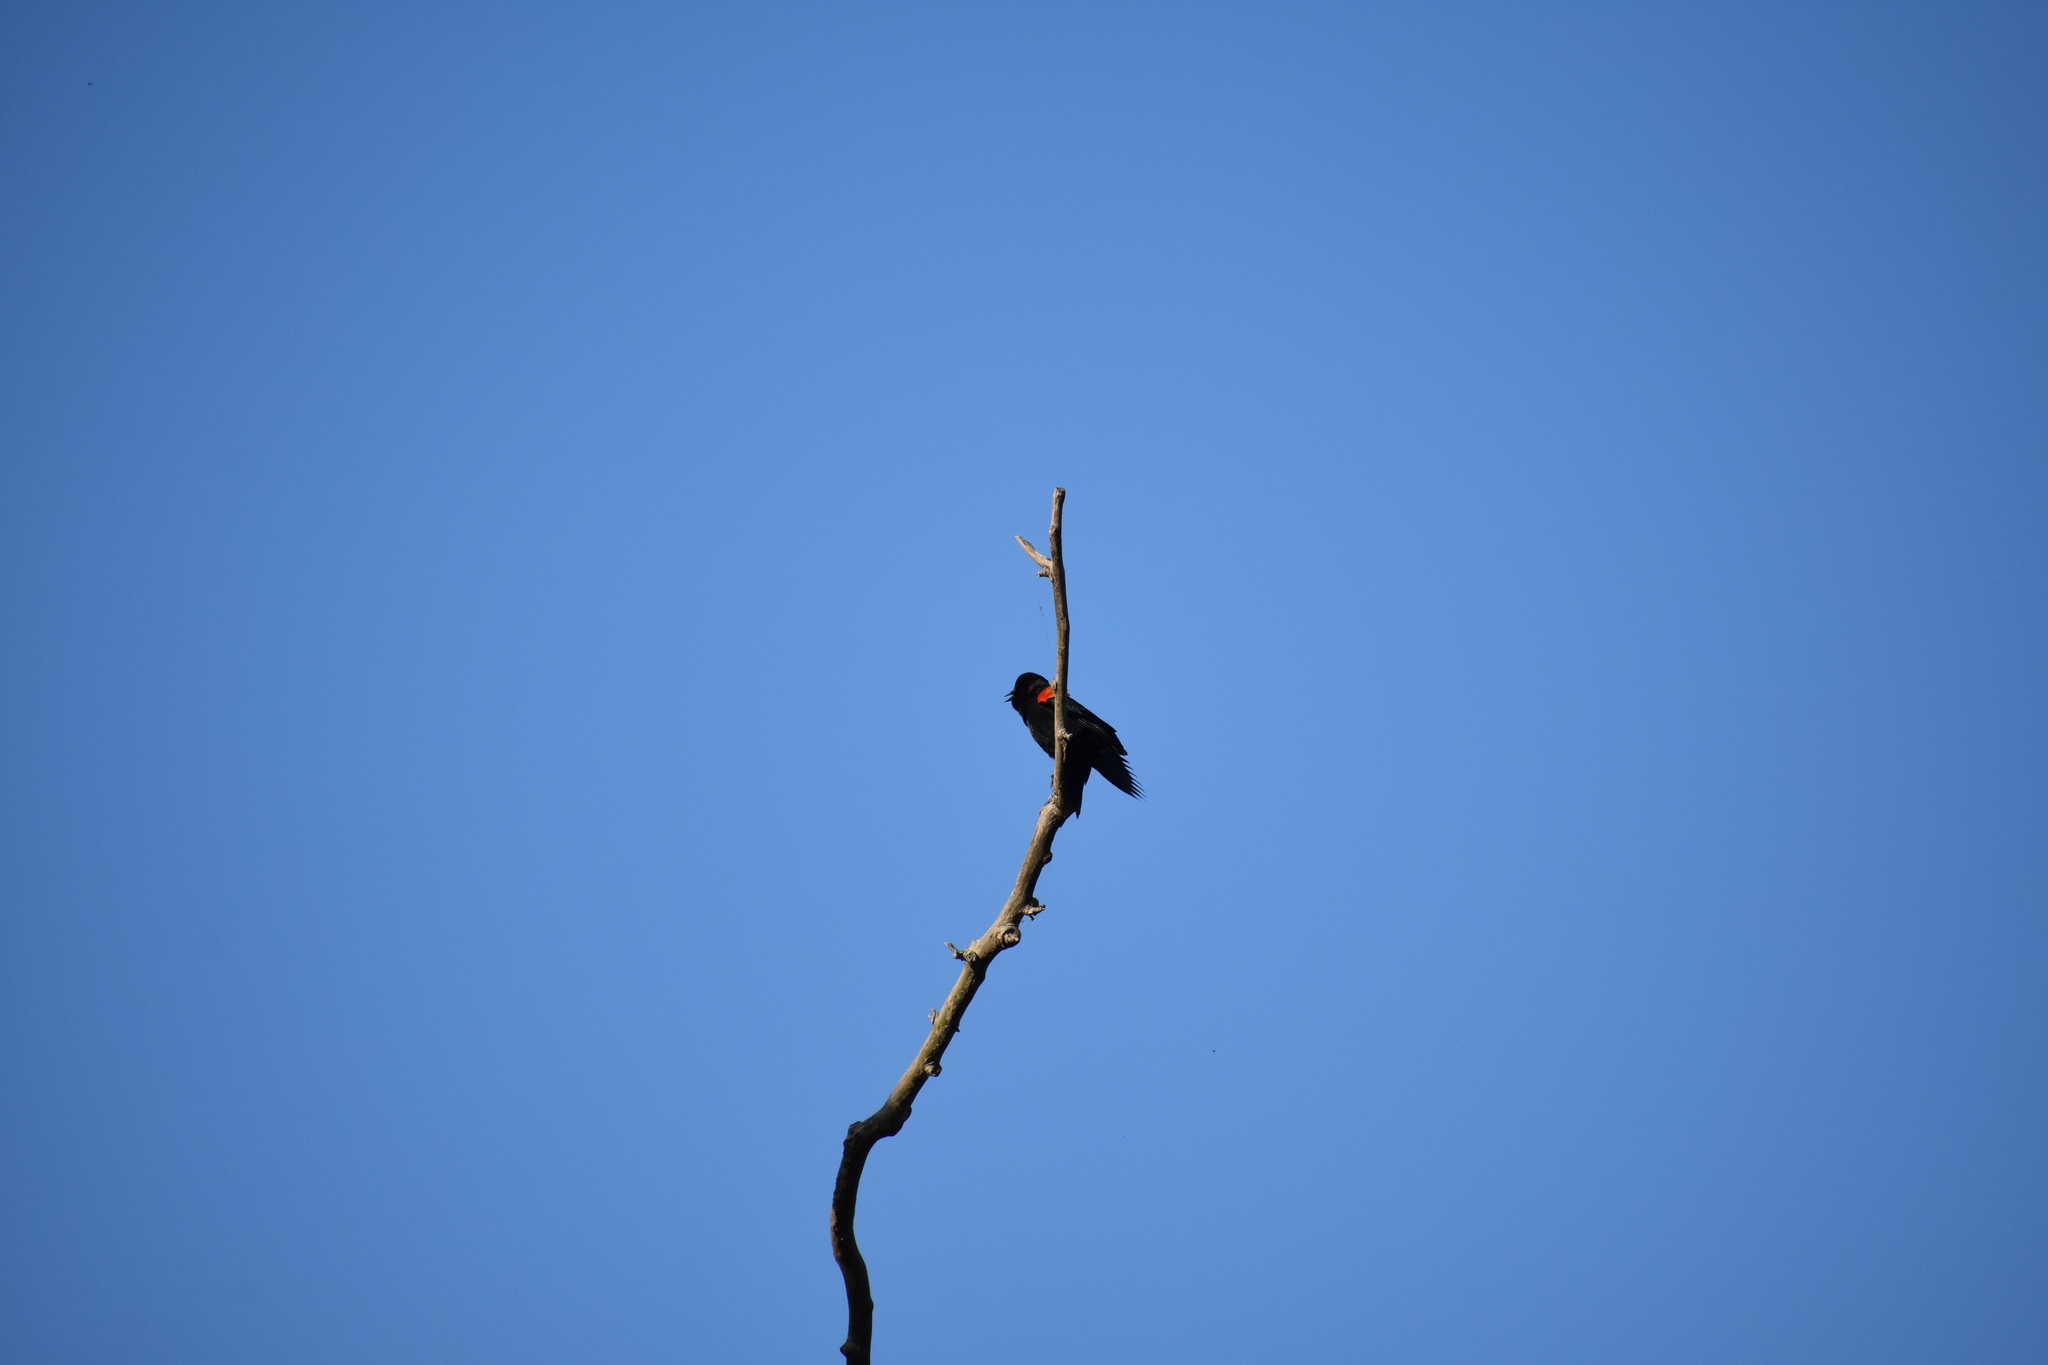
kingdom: Animalia
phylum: Chordata
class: Aves
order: Passeriformes
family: Icteridae
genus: Agelaius
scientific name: Agelaius phoeniceus
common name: Red-winged blackbird
